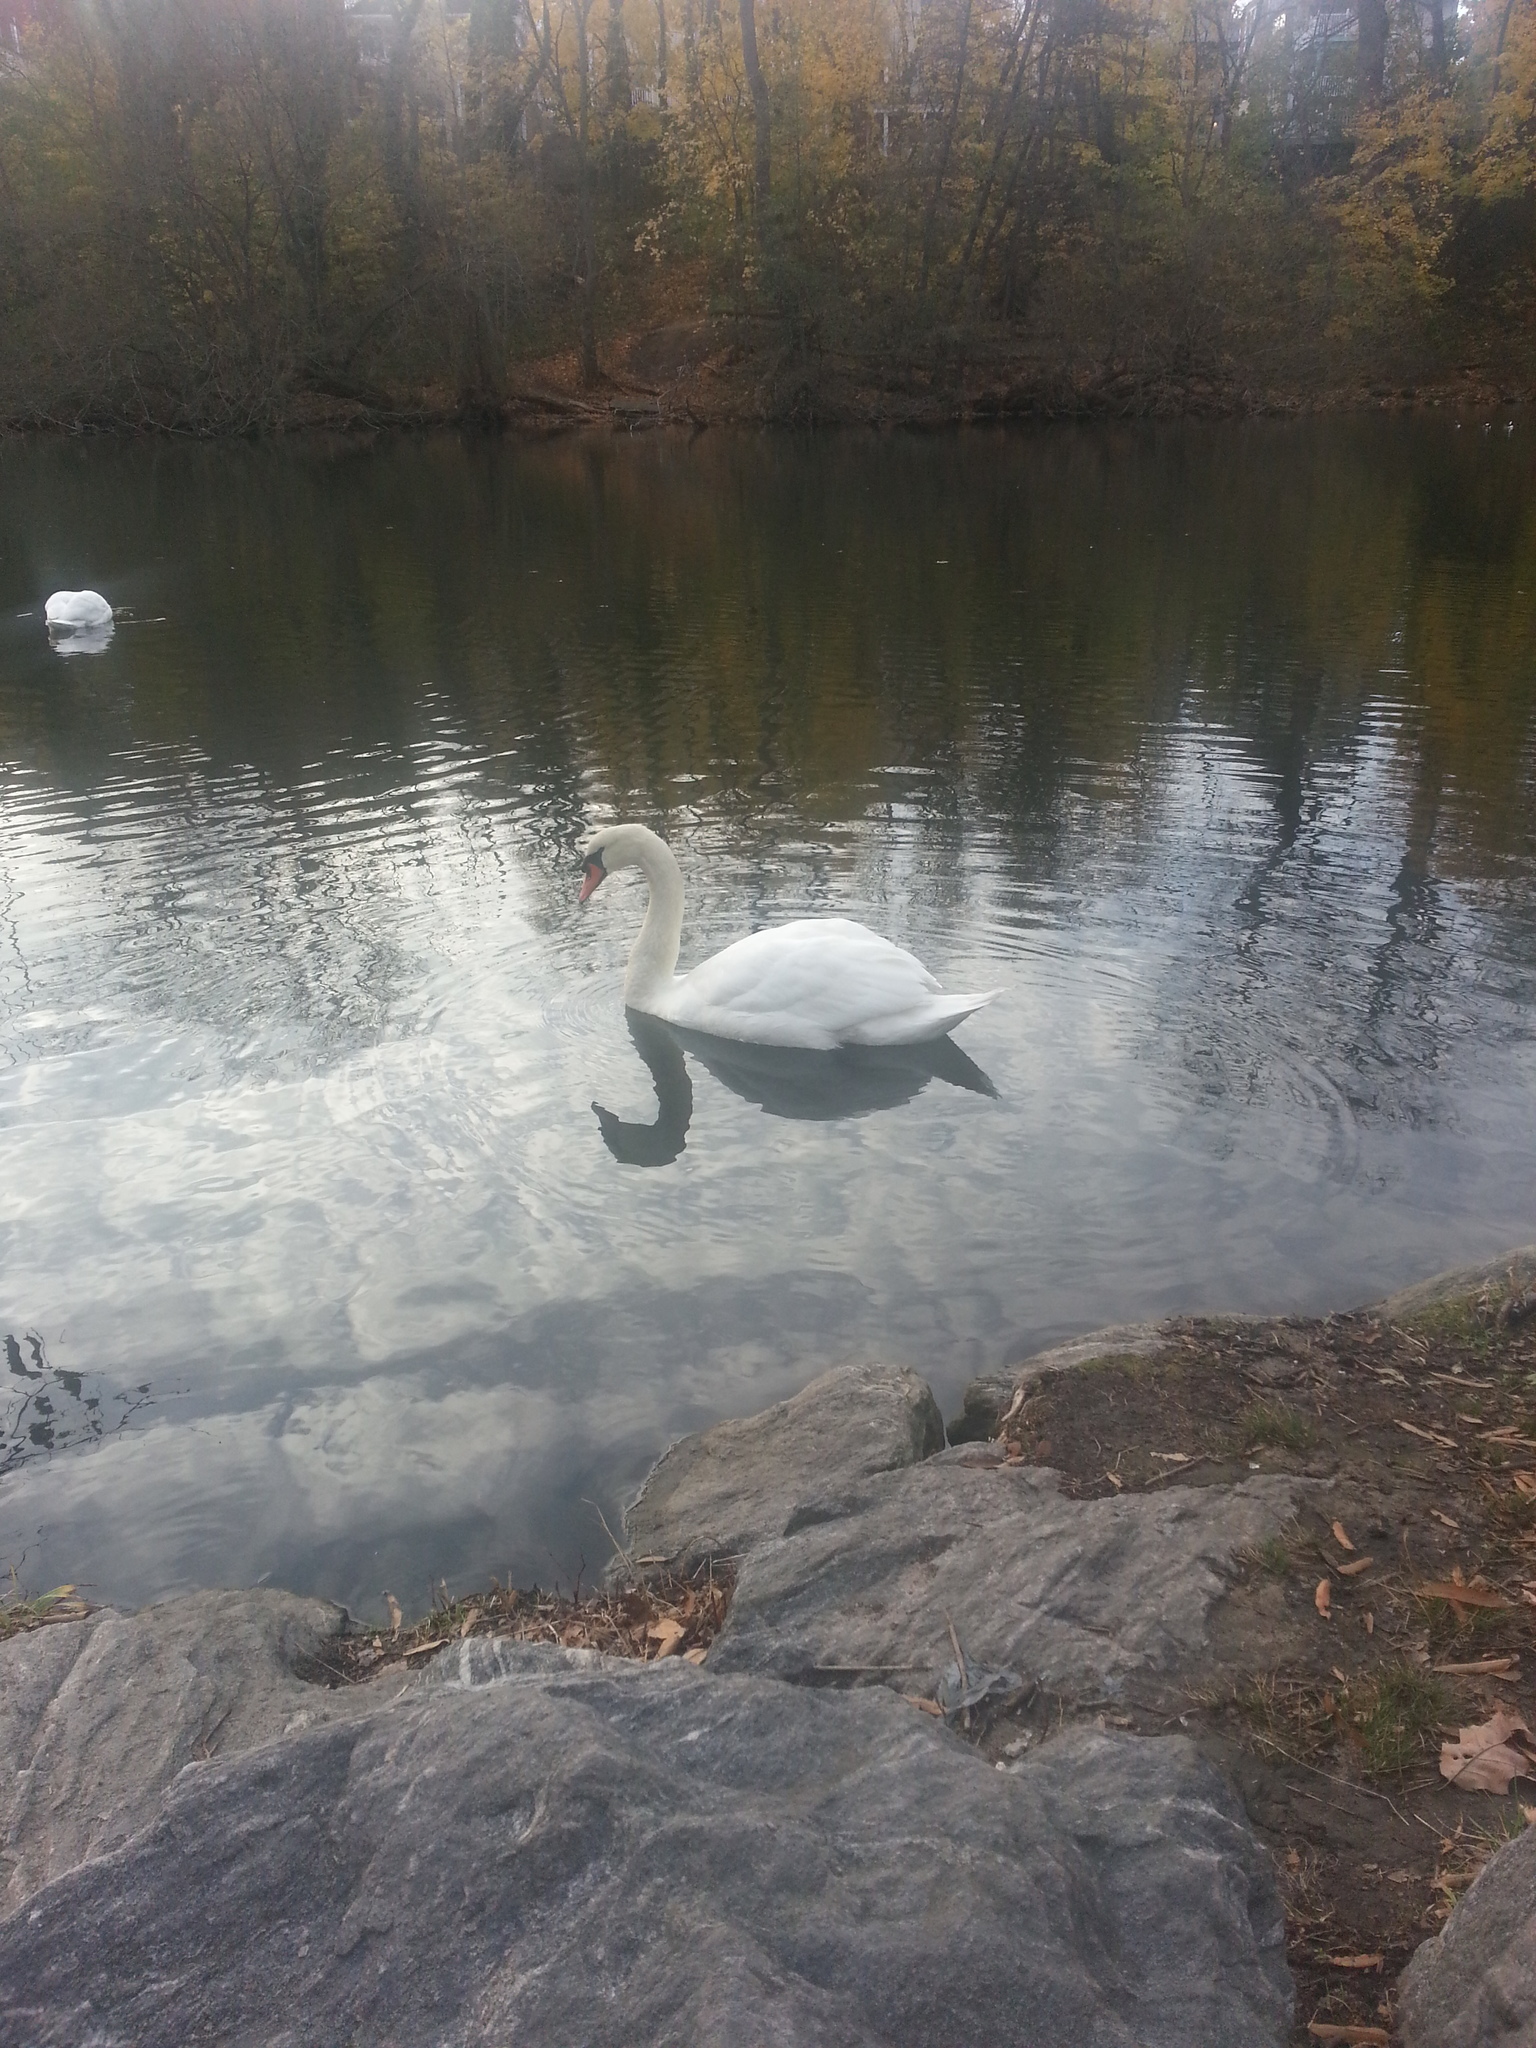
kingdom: Animalia
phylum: Chordata
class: Aves
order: Anseriformes
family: Anatidae
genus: Cygnus
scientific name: Cygnus olor
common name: Mute swan
